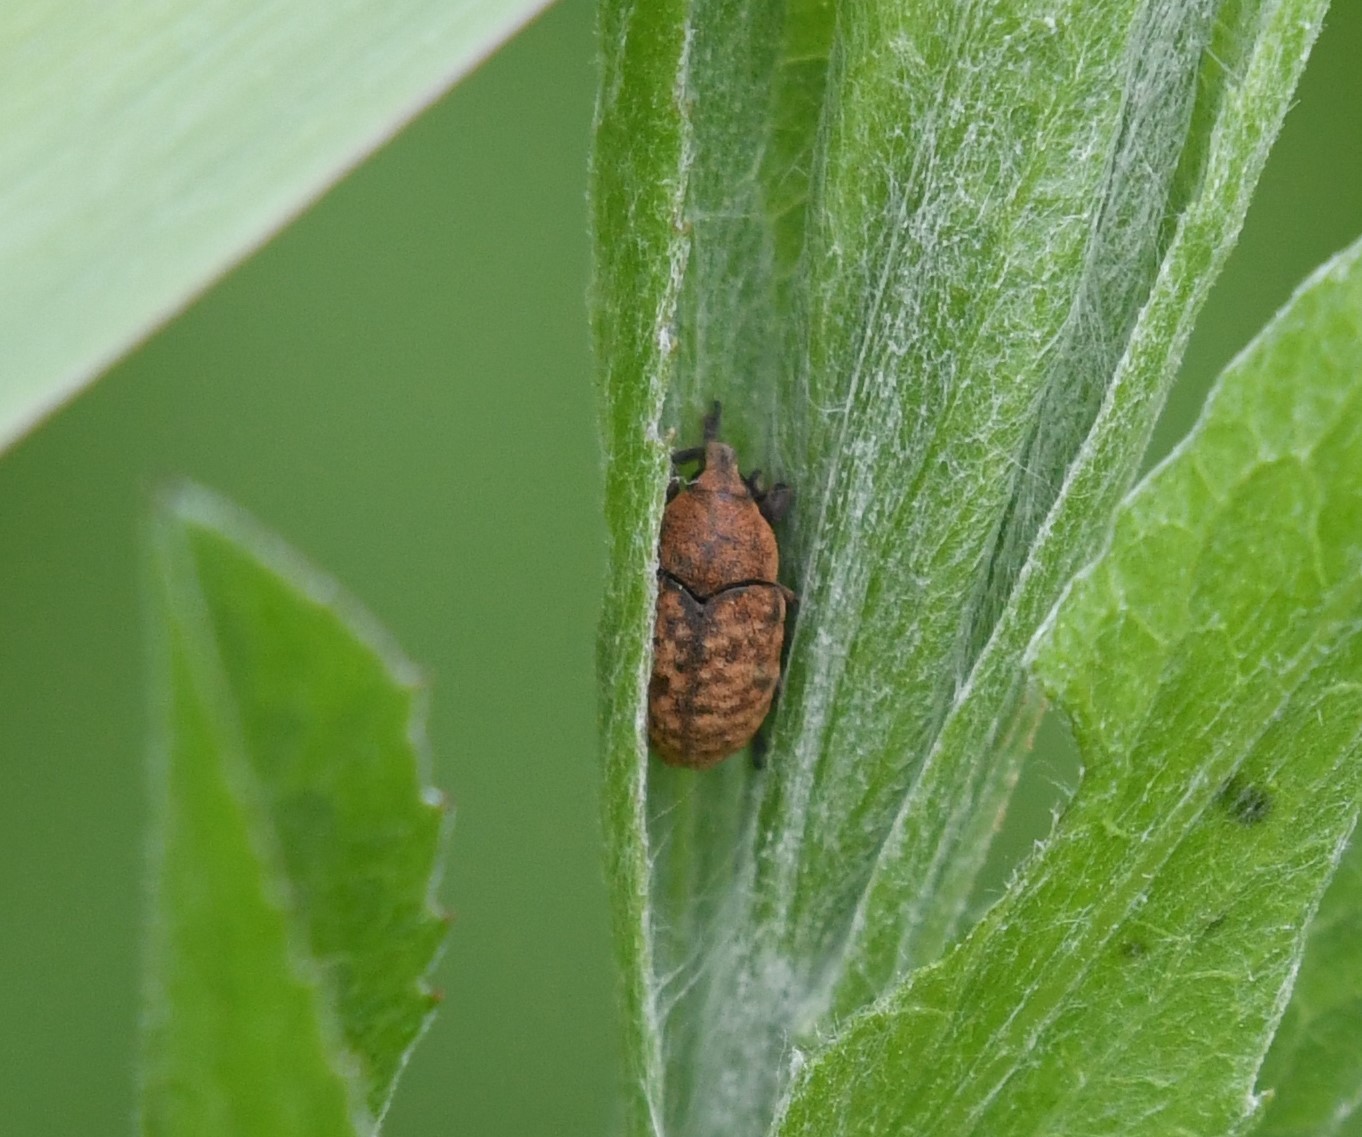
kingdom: Animalia
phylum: Arthropoda
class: Insecta
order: Coleoptera
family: Curculionidae
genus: Larinus
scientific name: Larinus obtusus
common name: Weevil
